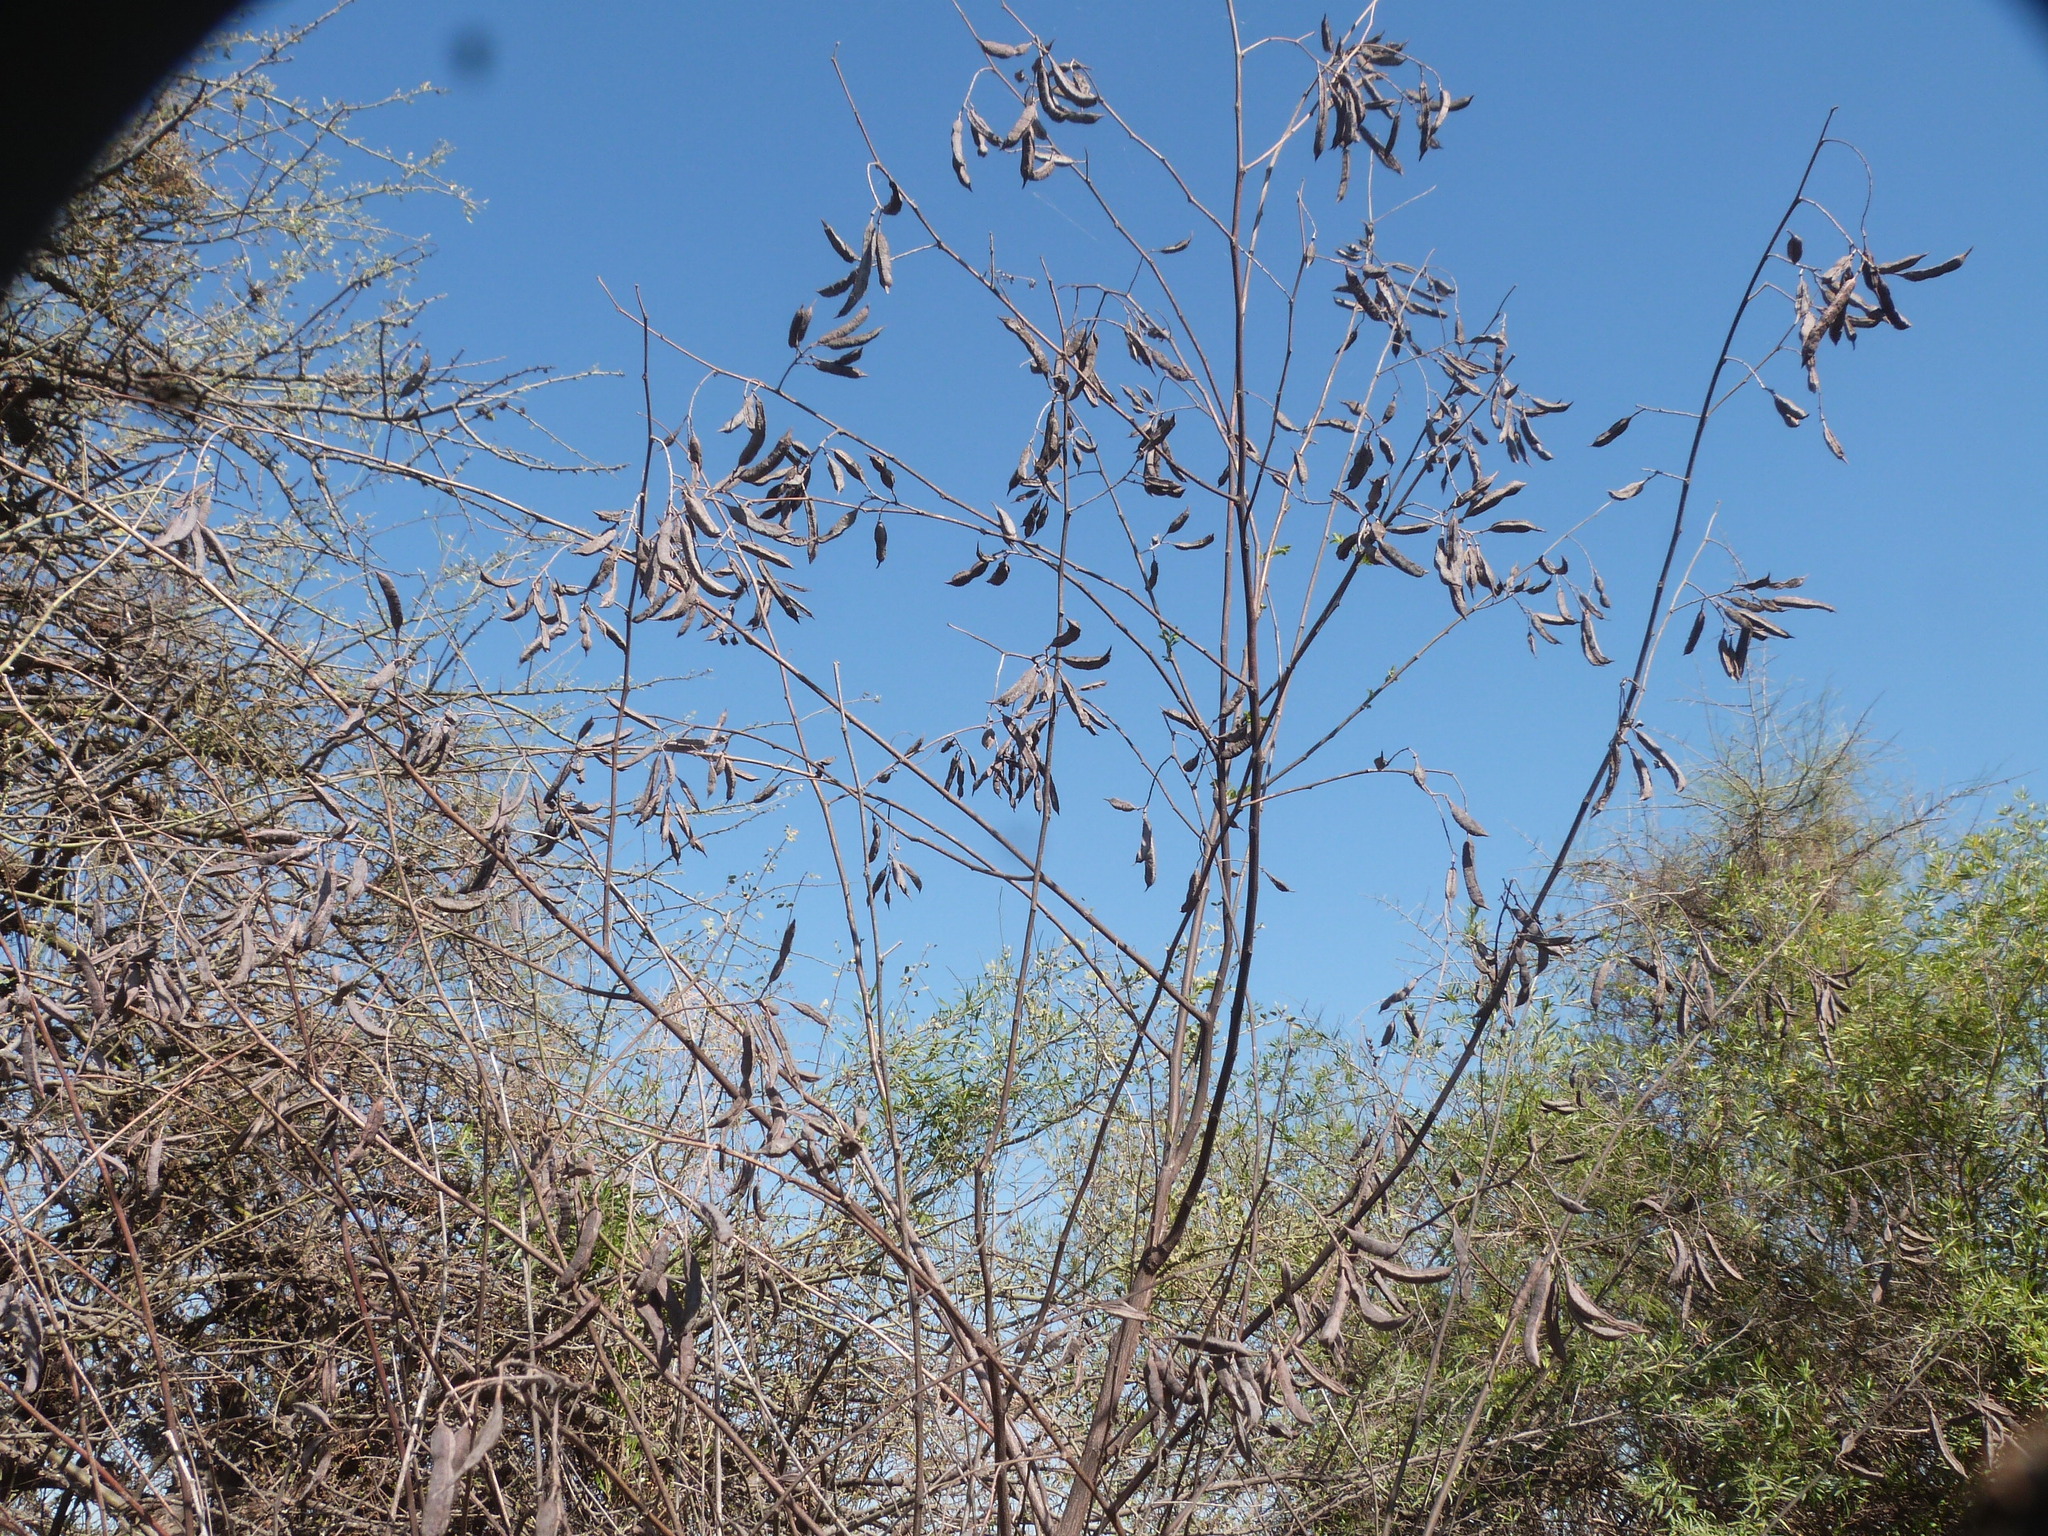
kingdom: Plantae
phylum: Tracheophyta
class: Magnoliopsida
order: Fabales
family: Fabaceae
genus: Sesbania
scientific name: Sesbania virgata
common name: Wand riverhemp
